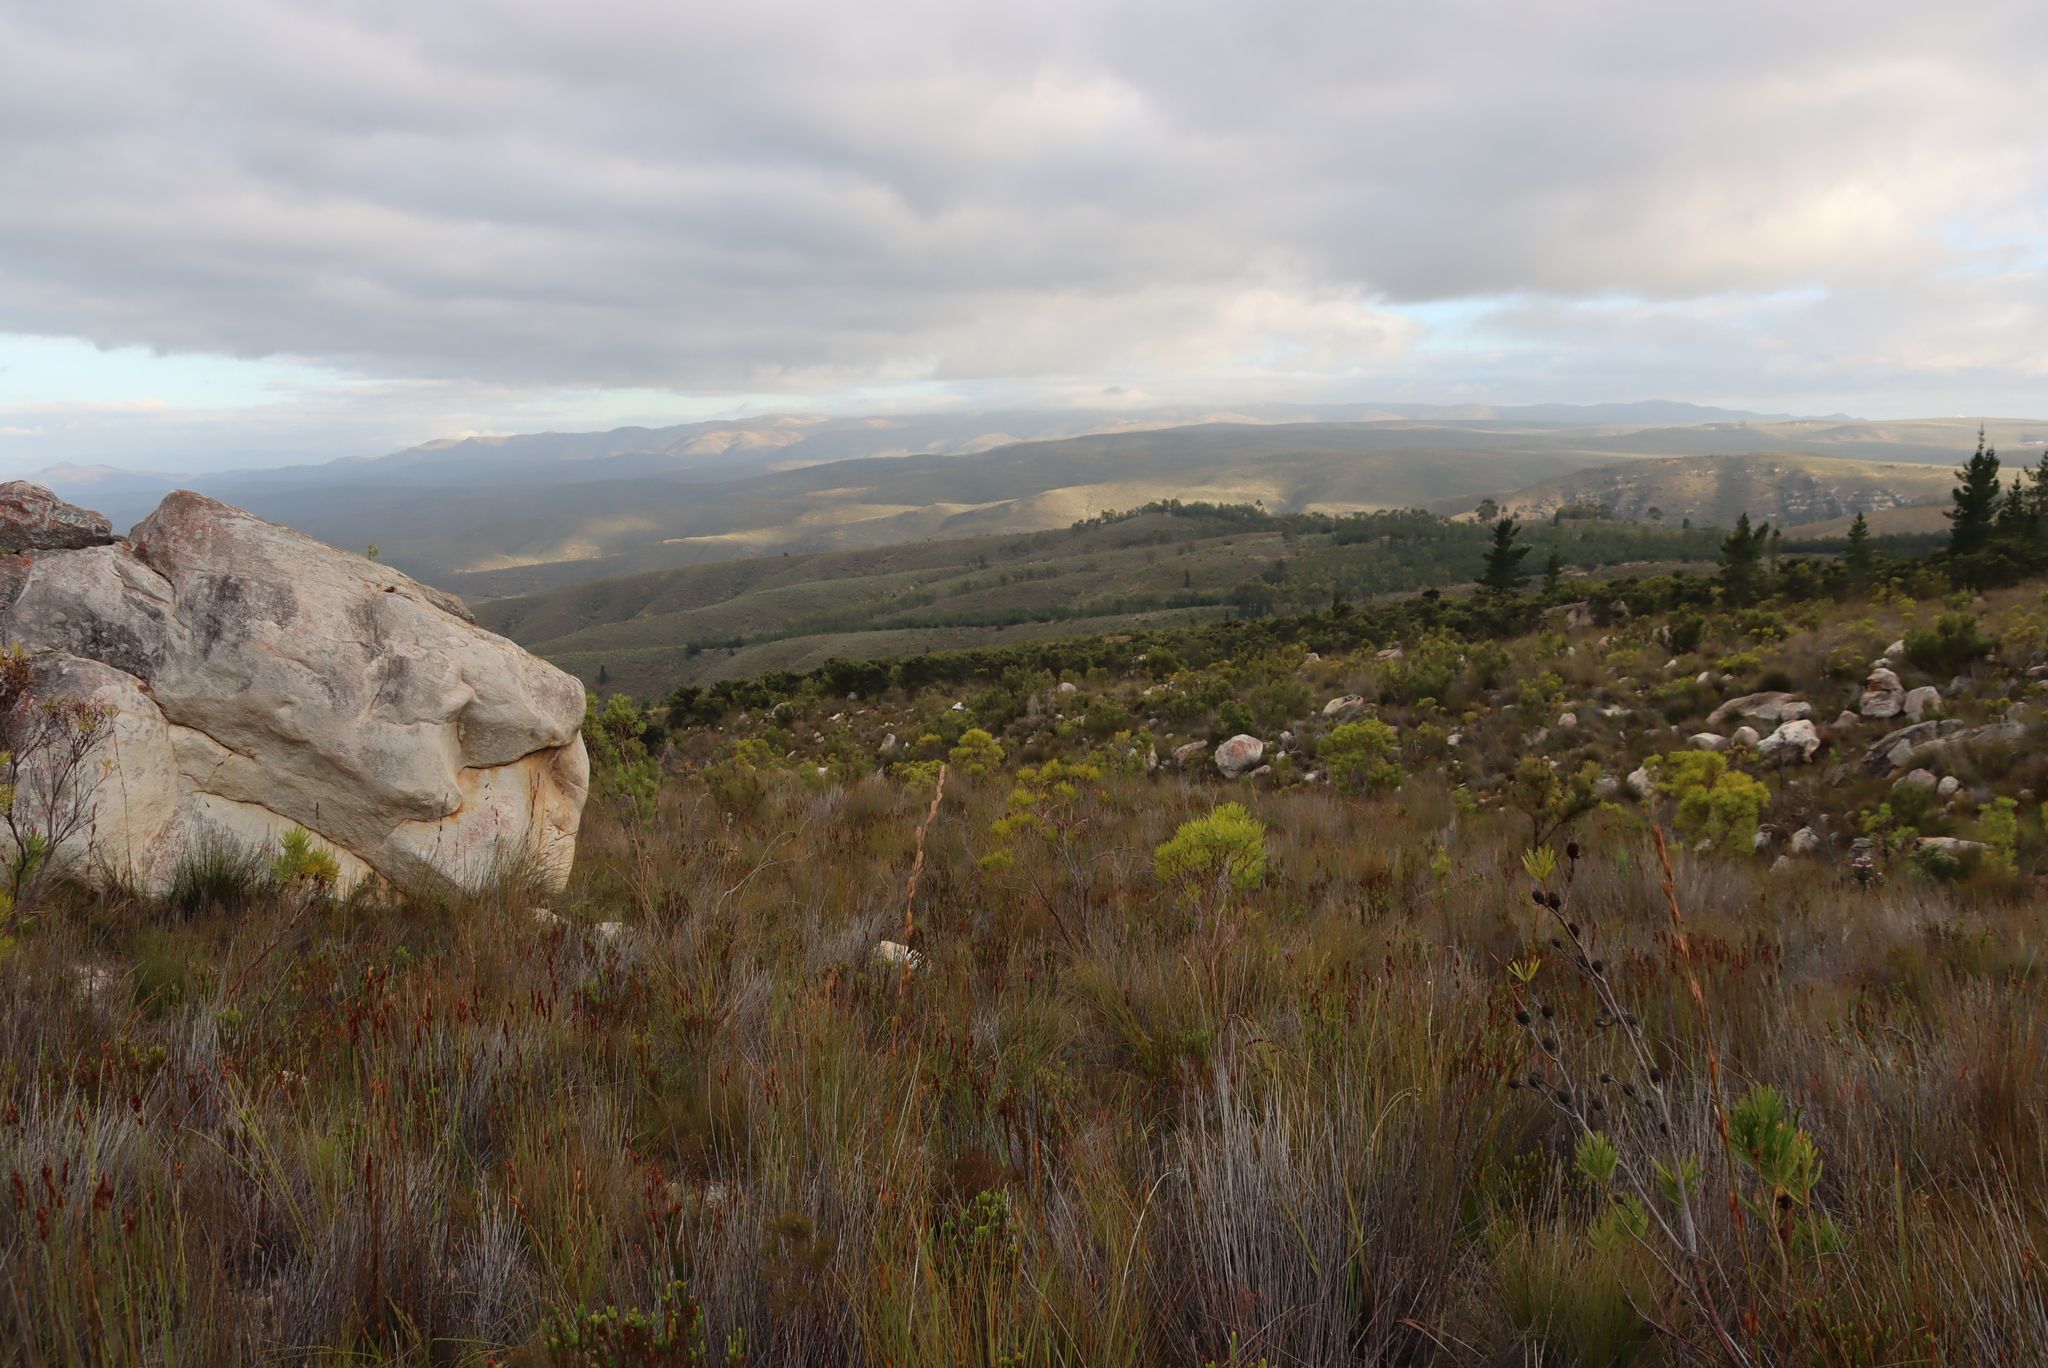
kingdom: Plantae
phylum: Tracheophyta
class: Magnoliopsida
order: Proteales
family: Proteaceae
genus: Hakea
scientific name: Hakea sericea
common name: Needle bush
